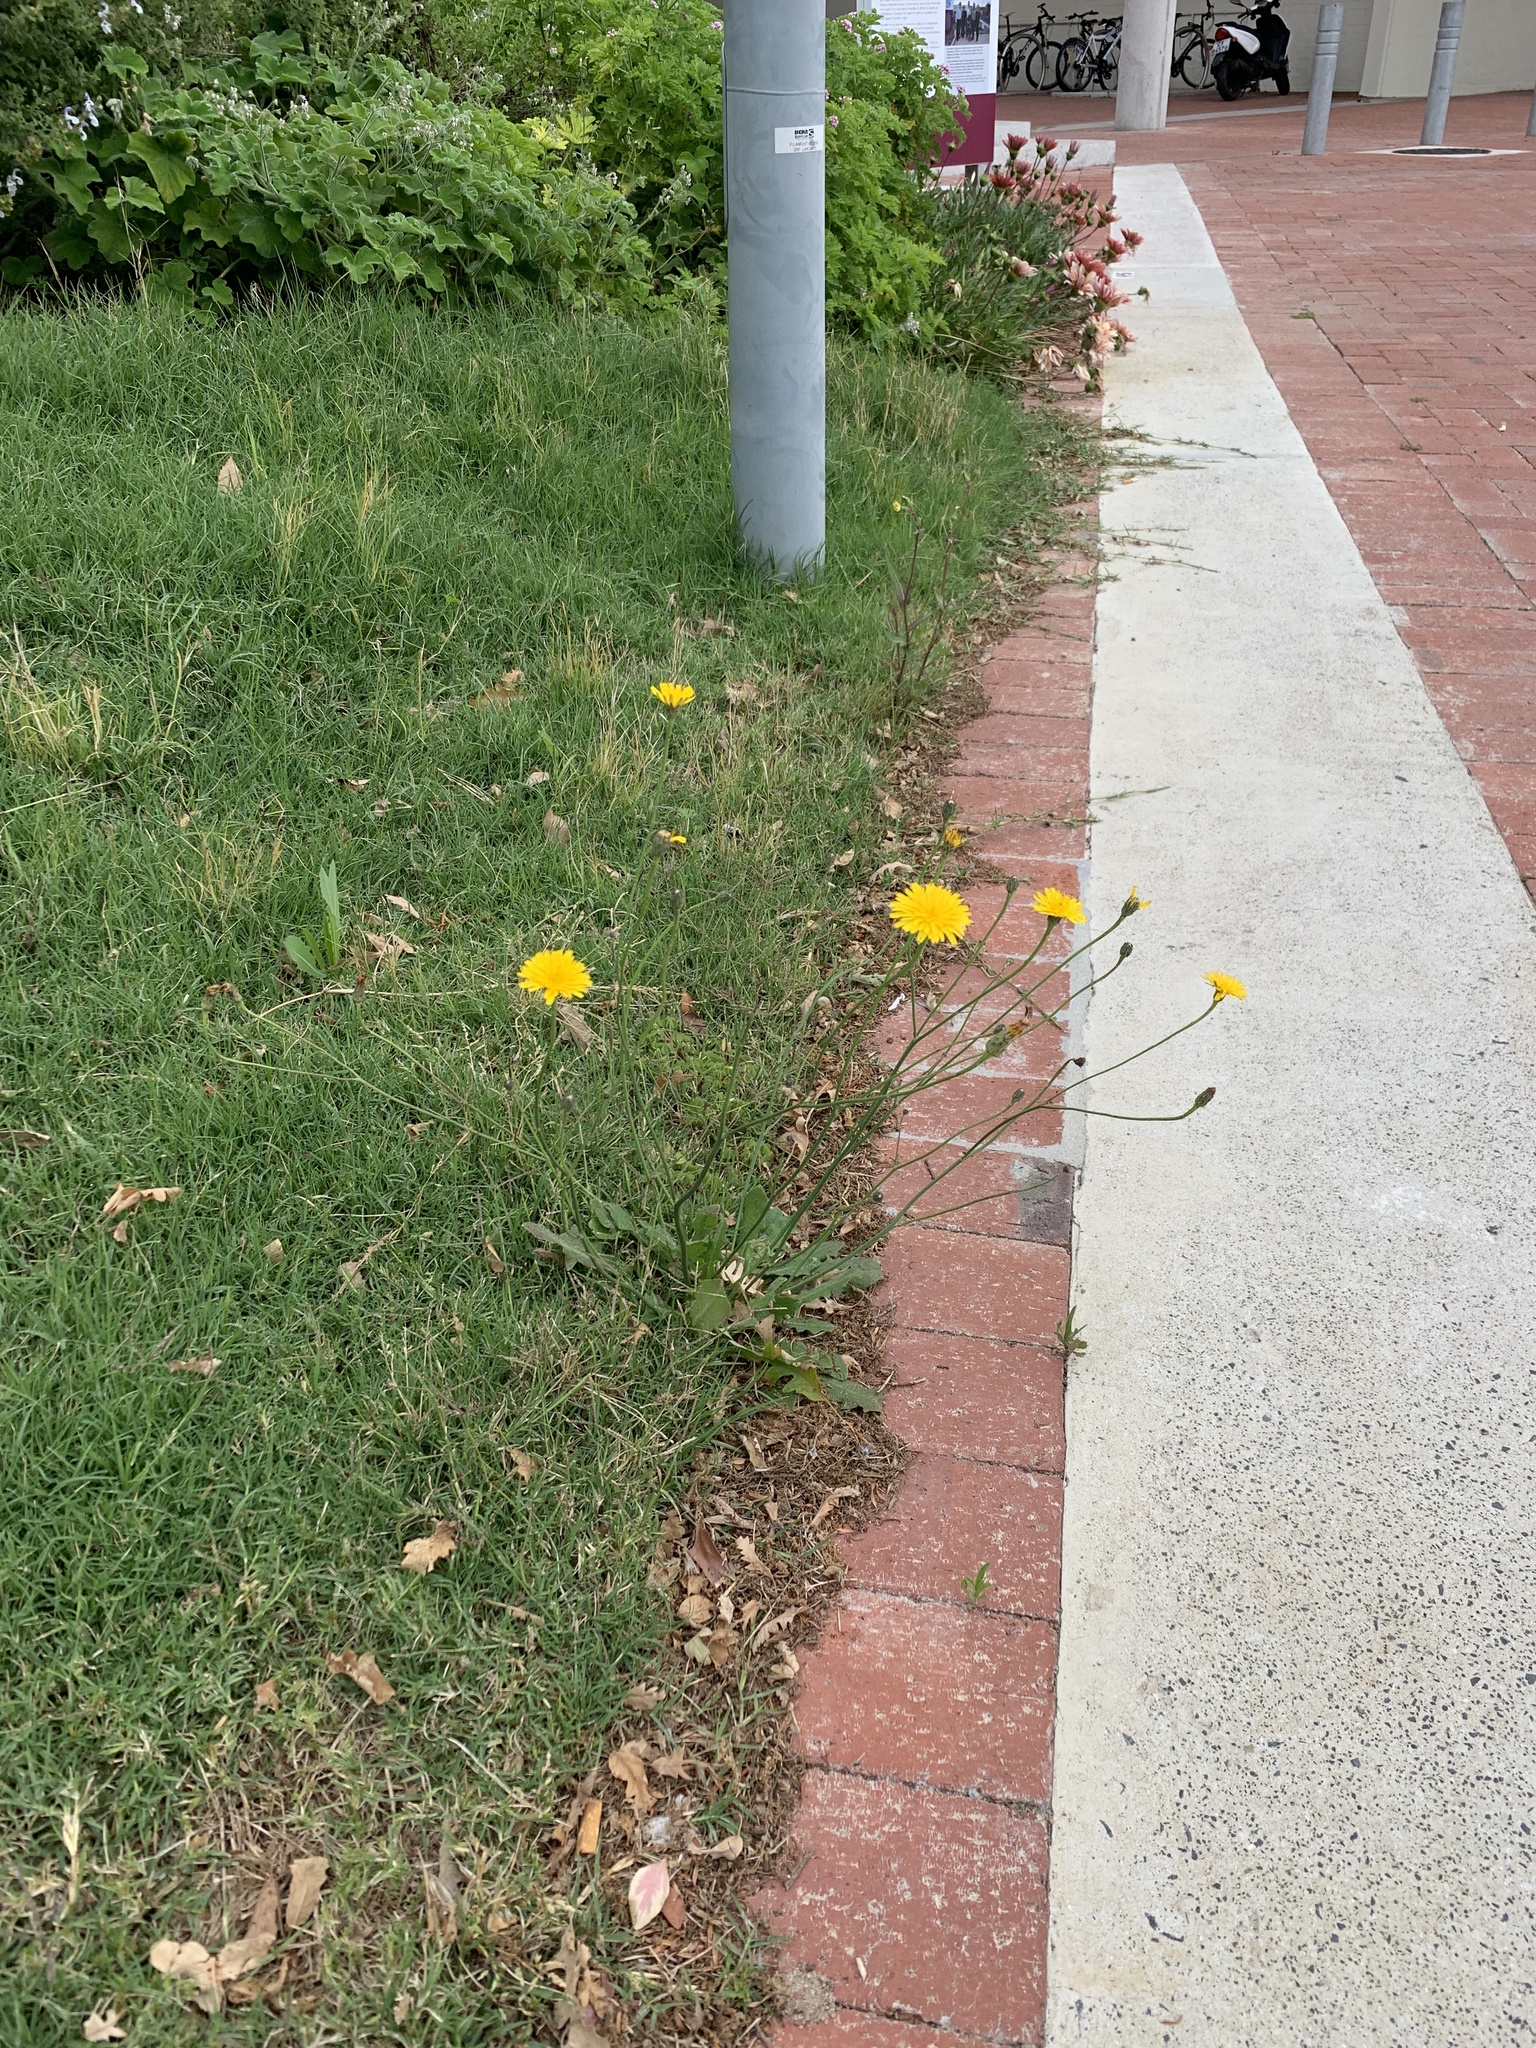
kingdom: Plantae
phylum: Tracheophyta
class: Magnoliopsida
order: Asterales
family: Asteraceae
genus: Hypochaeris
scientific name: Hypochaeris radicata
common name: Flatweed
